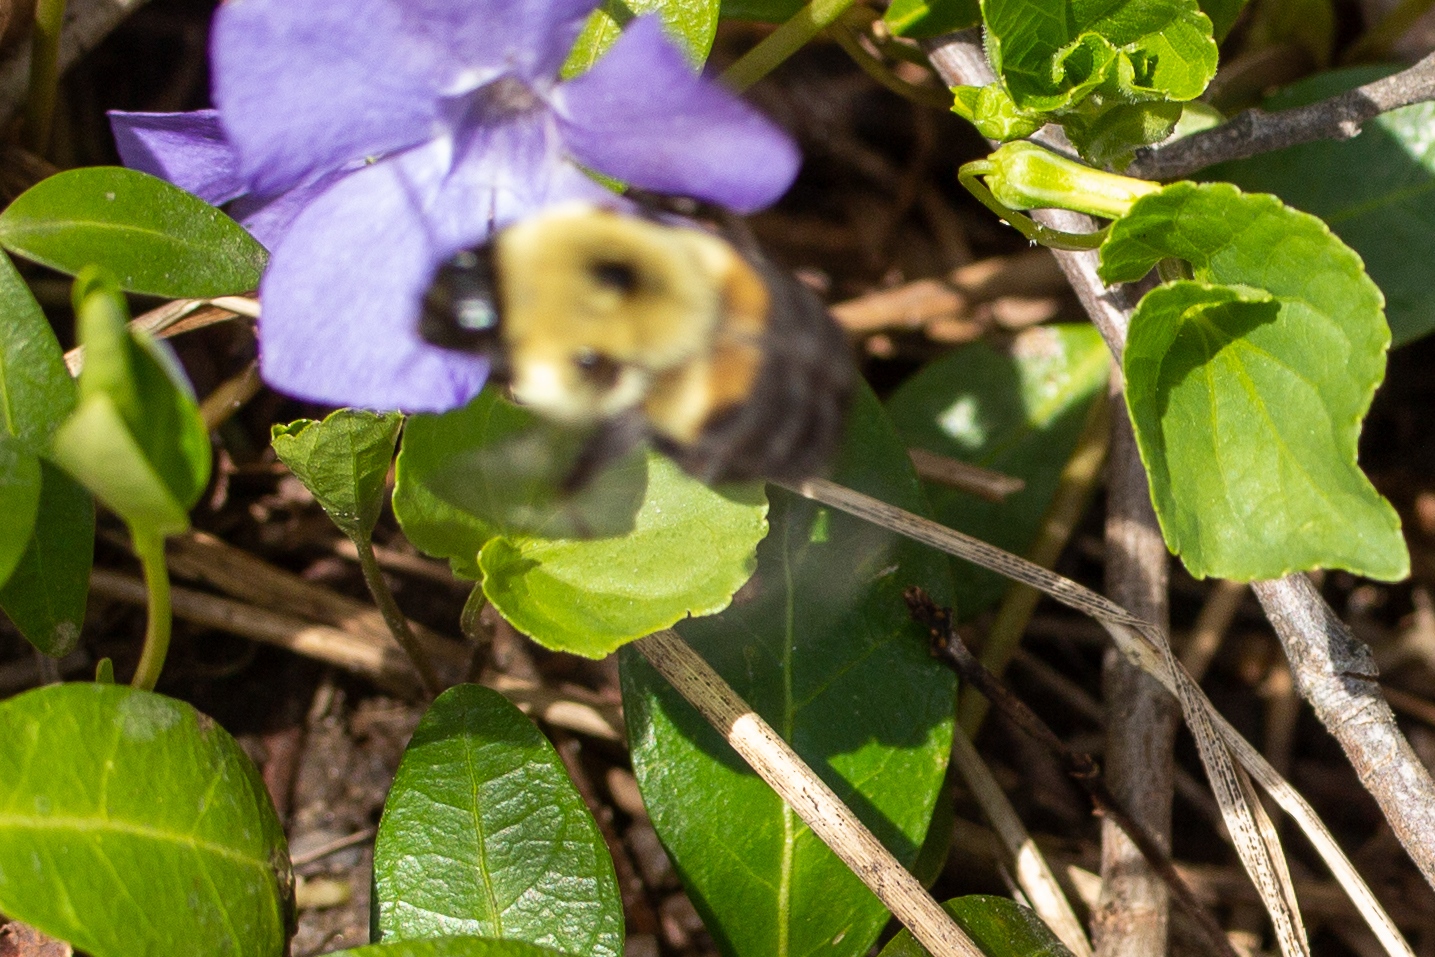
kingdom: Animalia
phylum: Arthropoda
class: Insecta
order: Hymenoptera
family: Apidae
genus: Bombus
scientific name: Bombus griseocollis
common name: Brown-belted bumble bee
